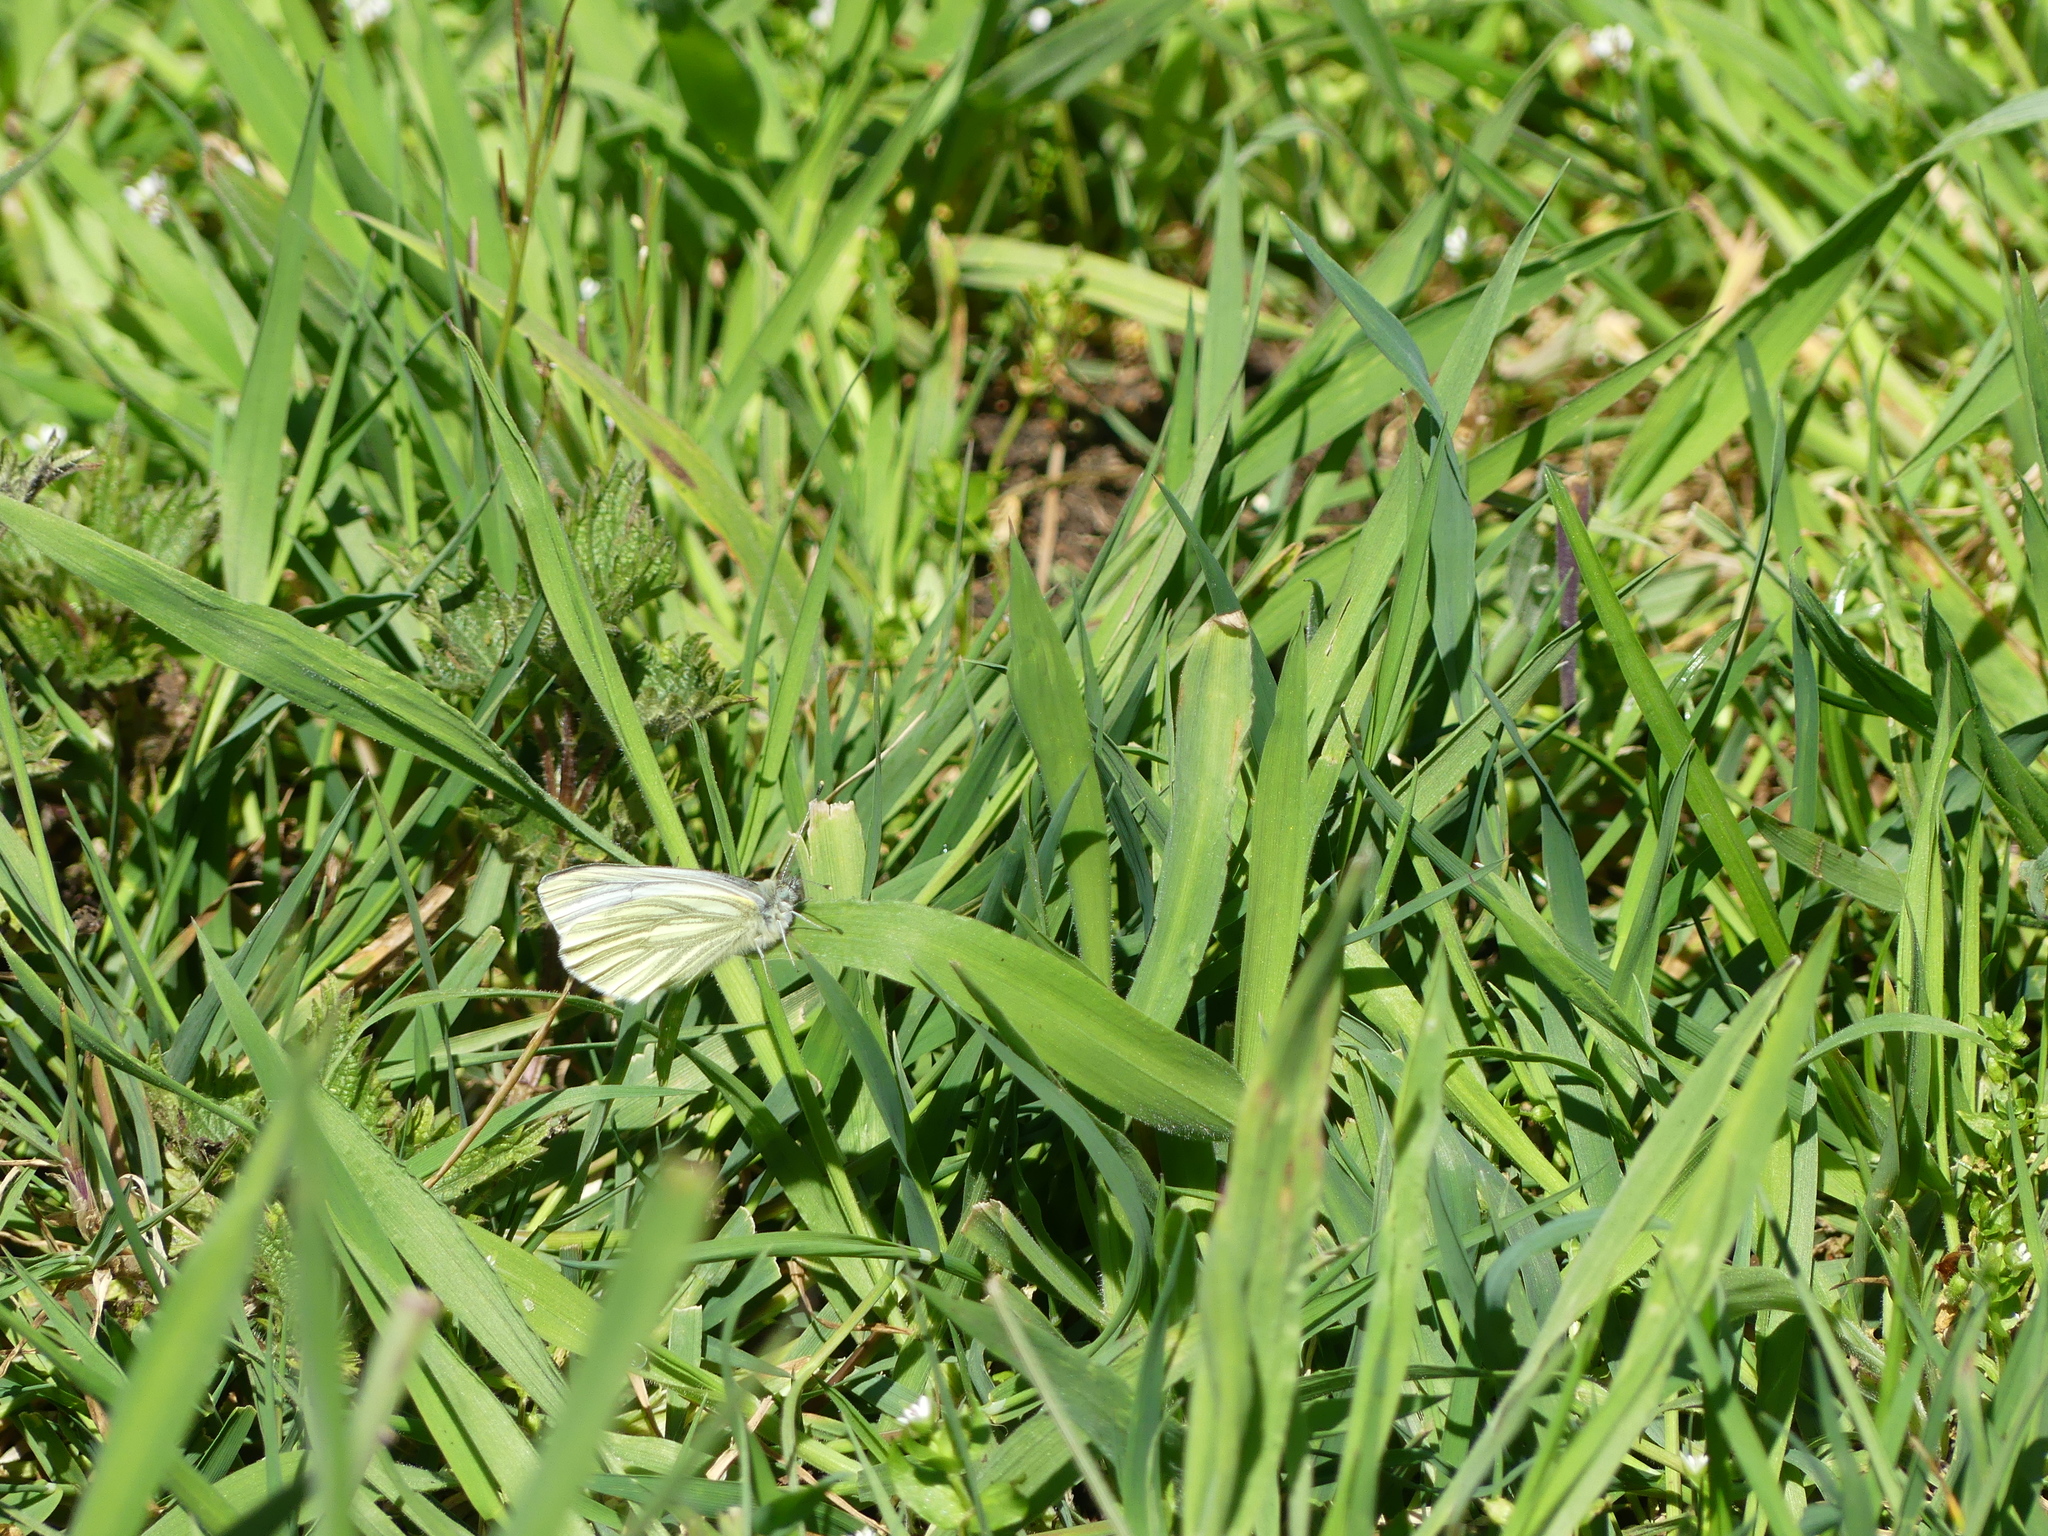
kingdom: Animalia
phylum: Arthropoda
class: Insecta
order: Lepidoptera
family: Pieridae
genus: Pieris
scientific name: Pieris napi
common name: Green-veined white
